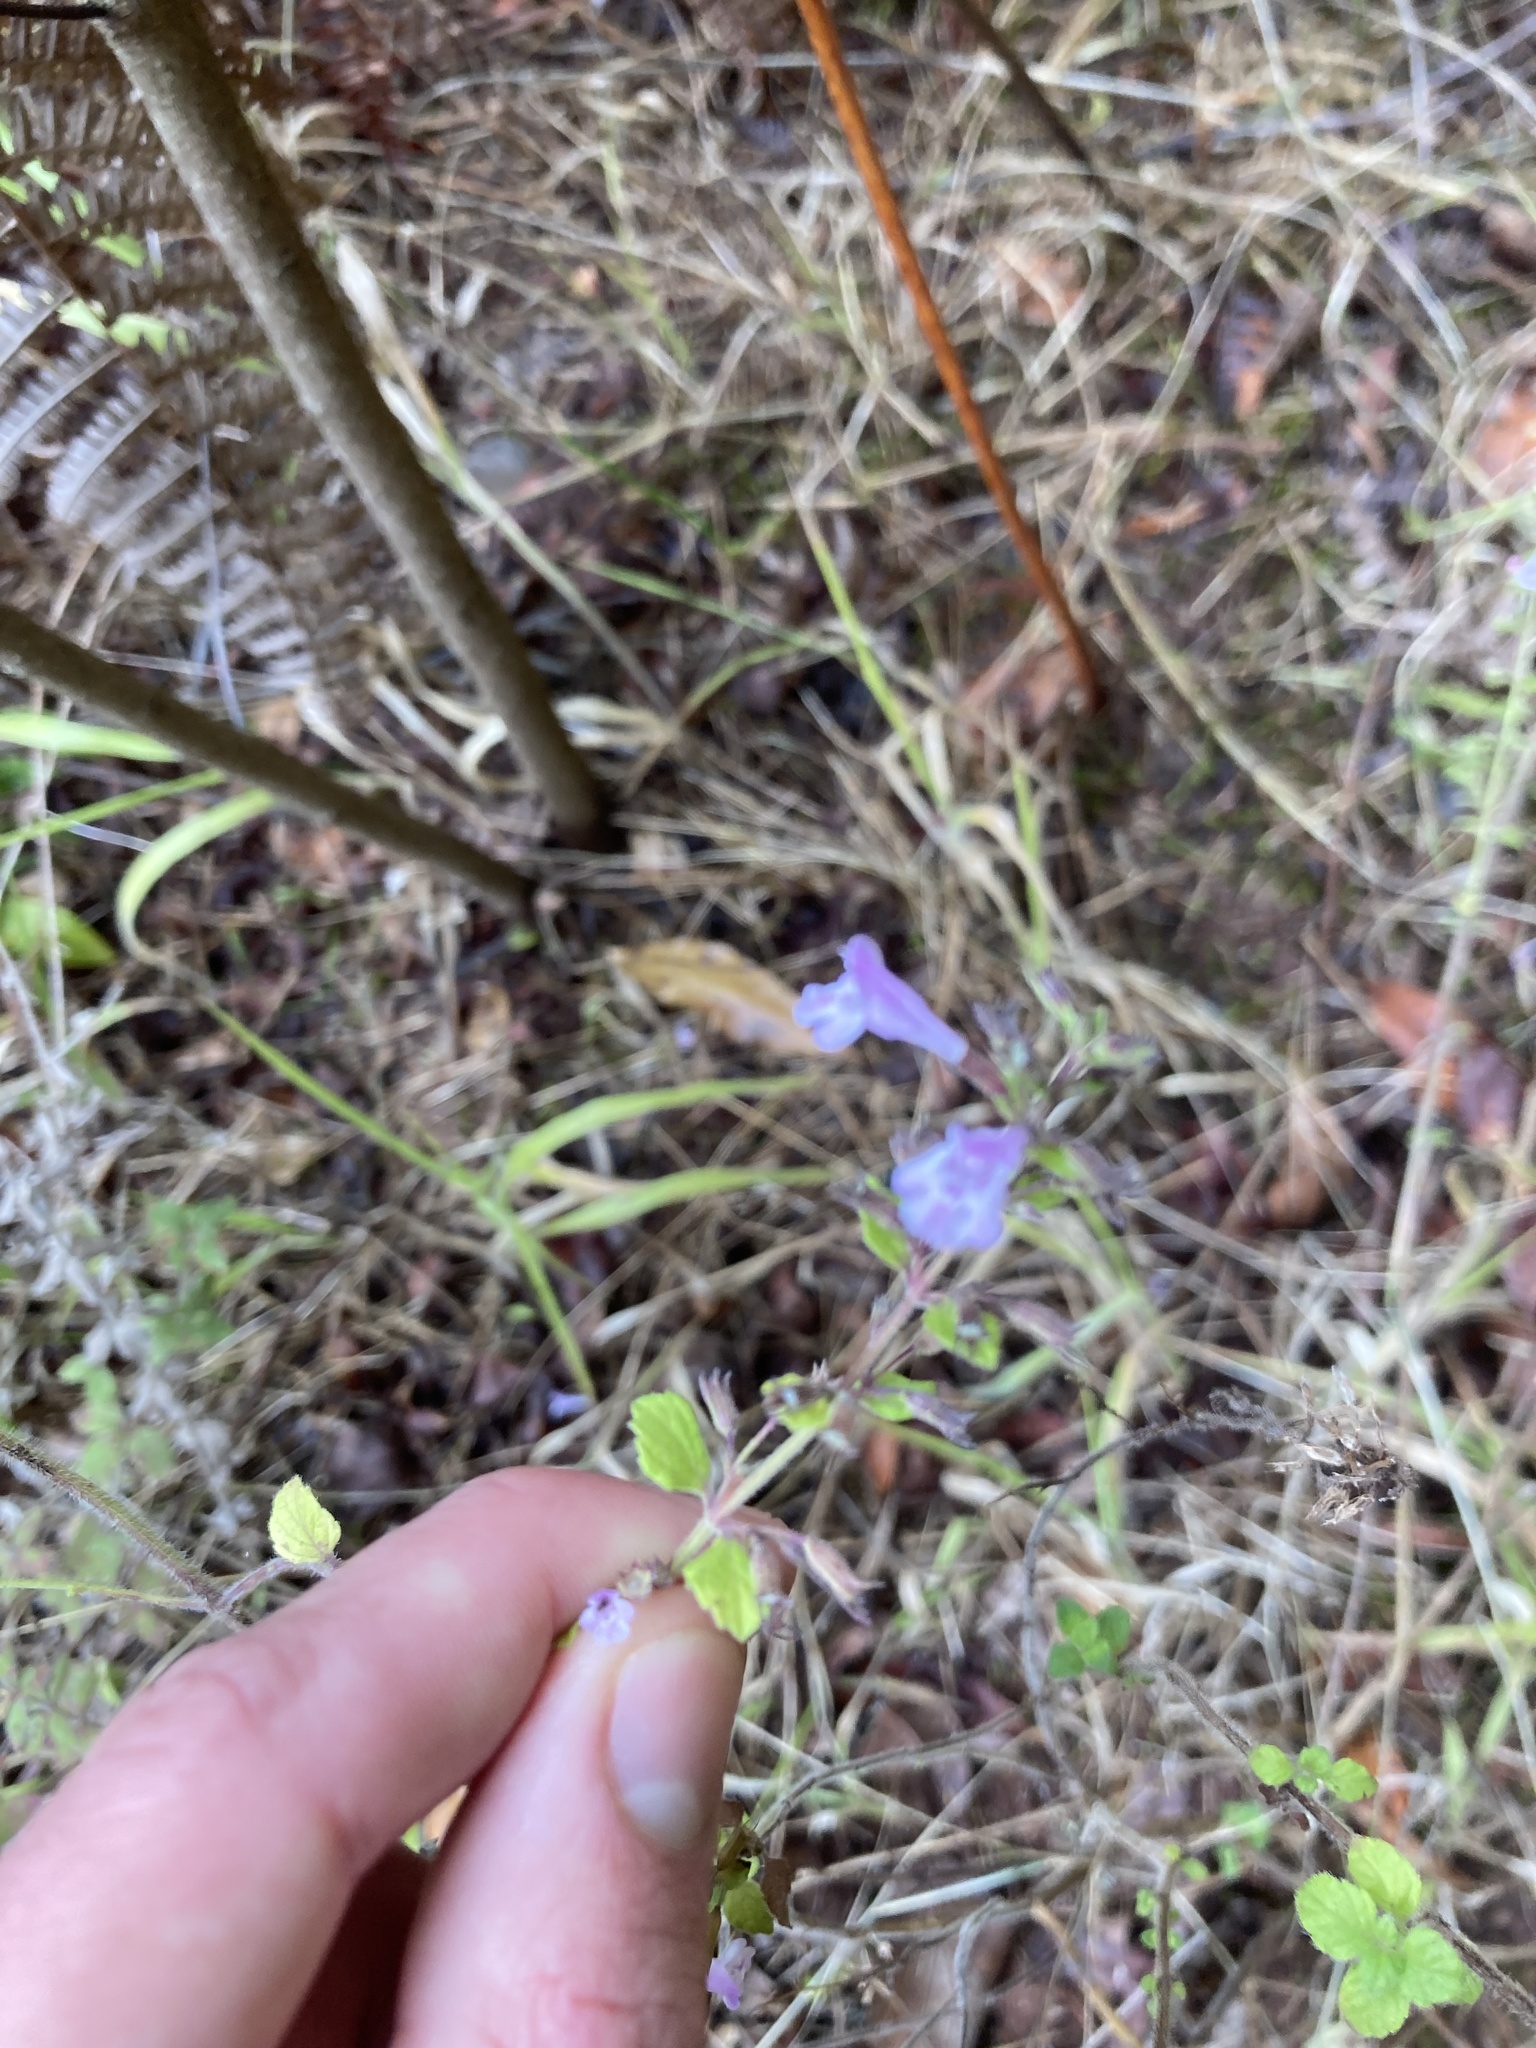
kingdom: Plantae
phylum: Tracheophyta
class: Magnoliopsida
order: Lamiales
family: Lamiaceae
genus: Clinopodium
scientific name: Clinopodium menthifolium
